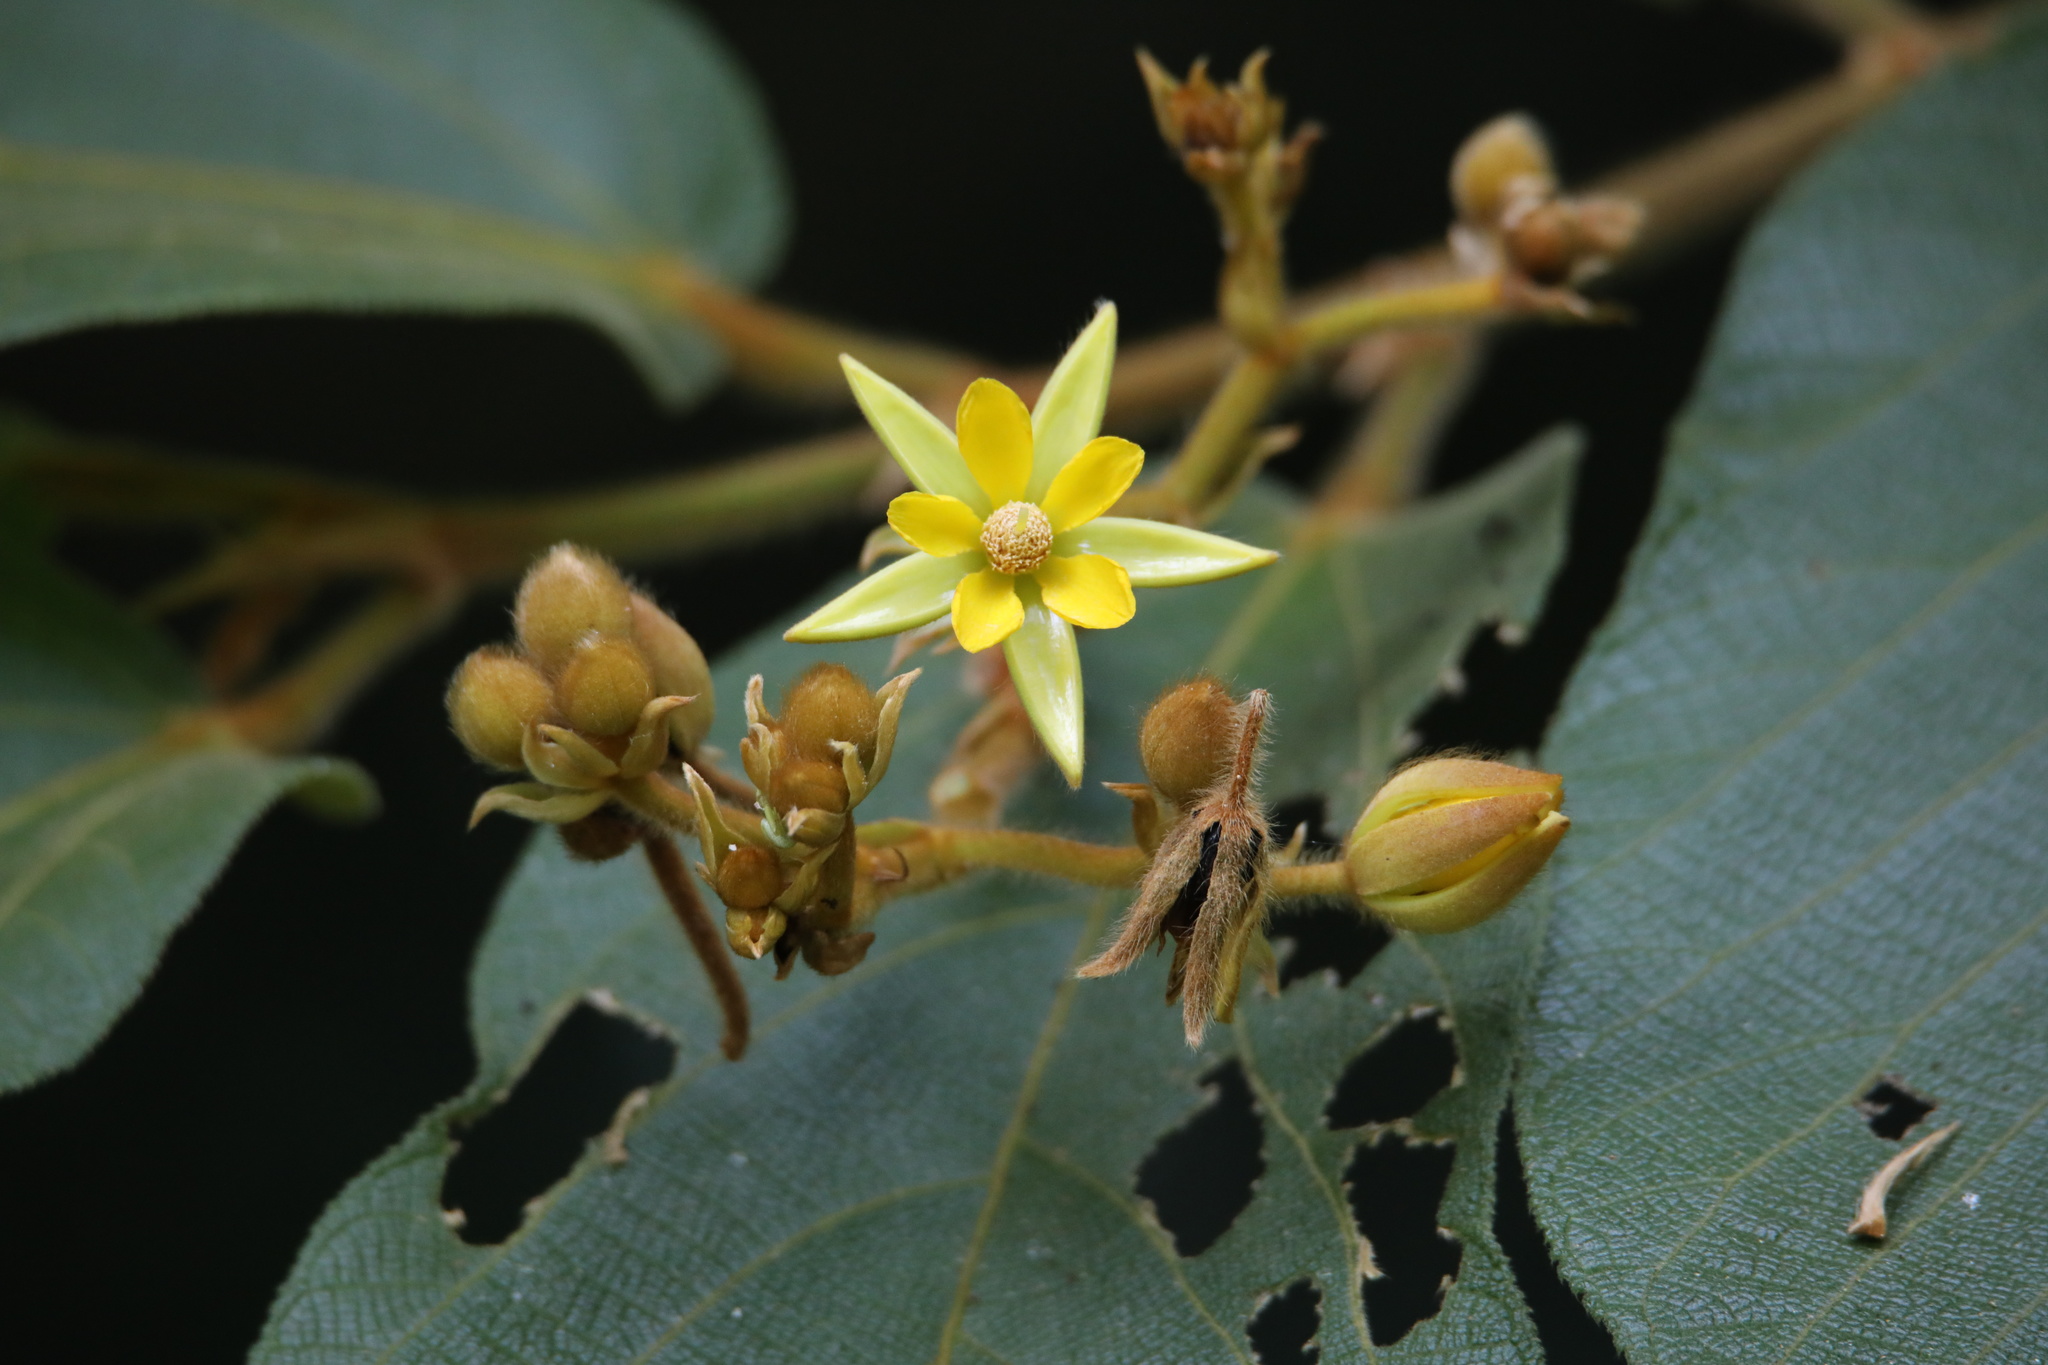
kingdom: Plantae
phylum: Tracheophyta
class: Magnoliopsida
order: Malvales
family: Malvaceae
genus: Apeiba
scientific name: Apeiba tibourbou
